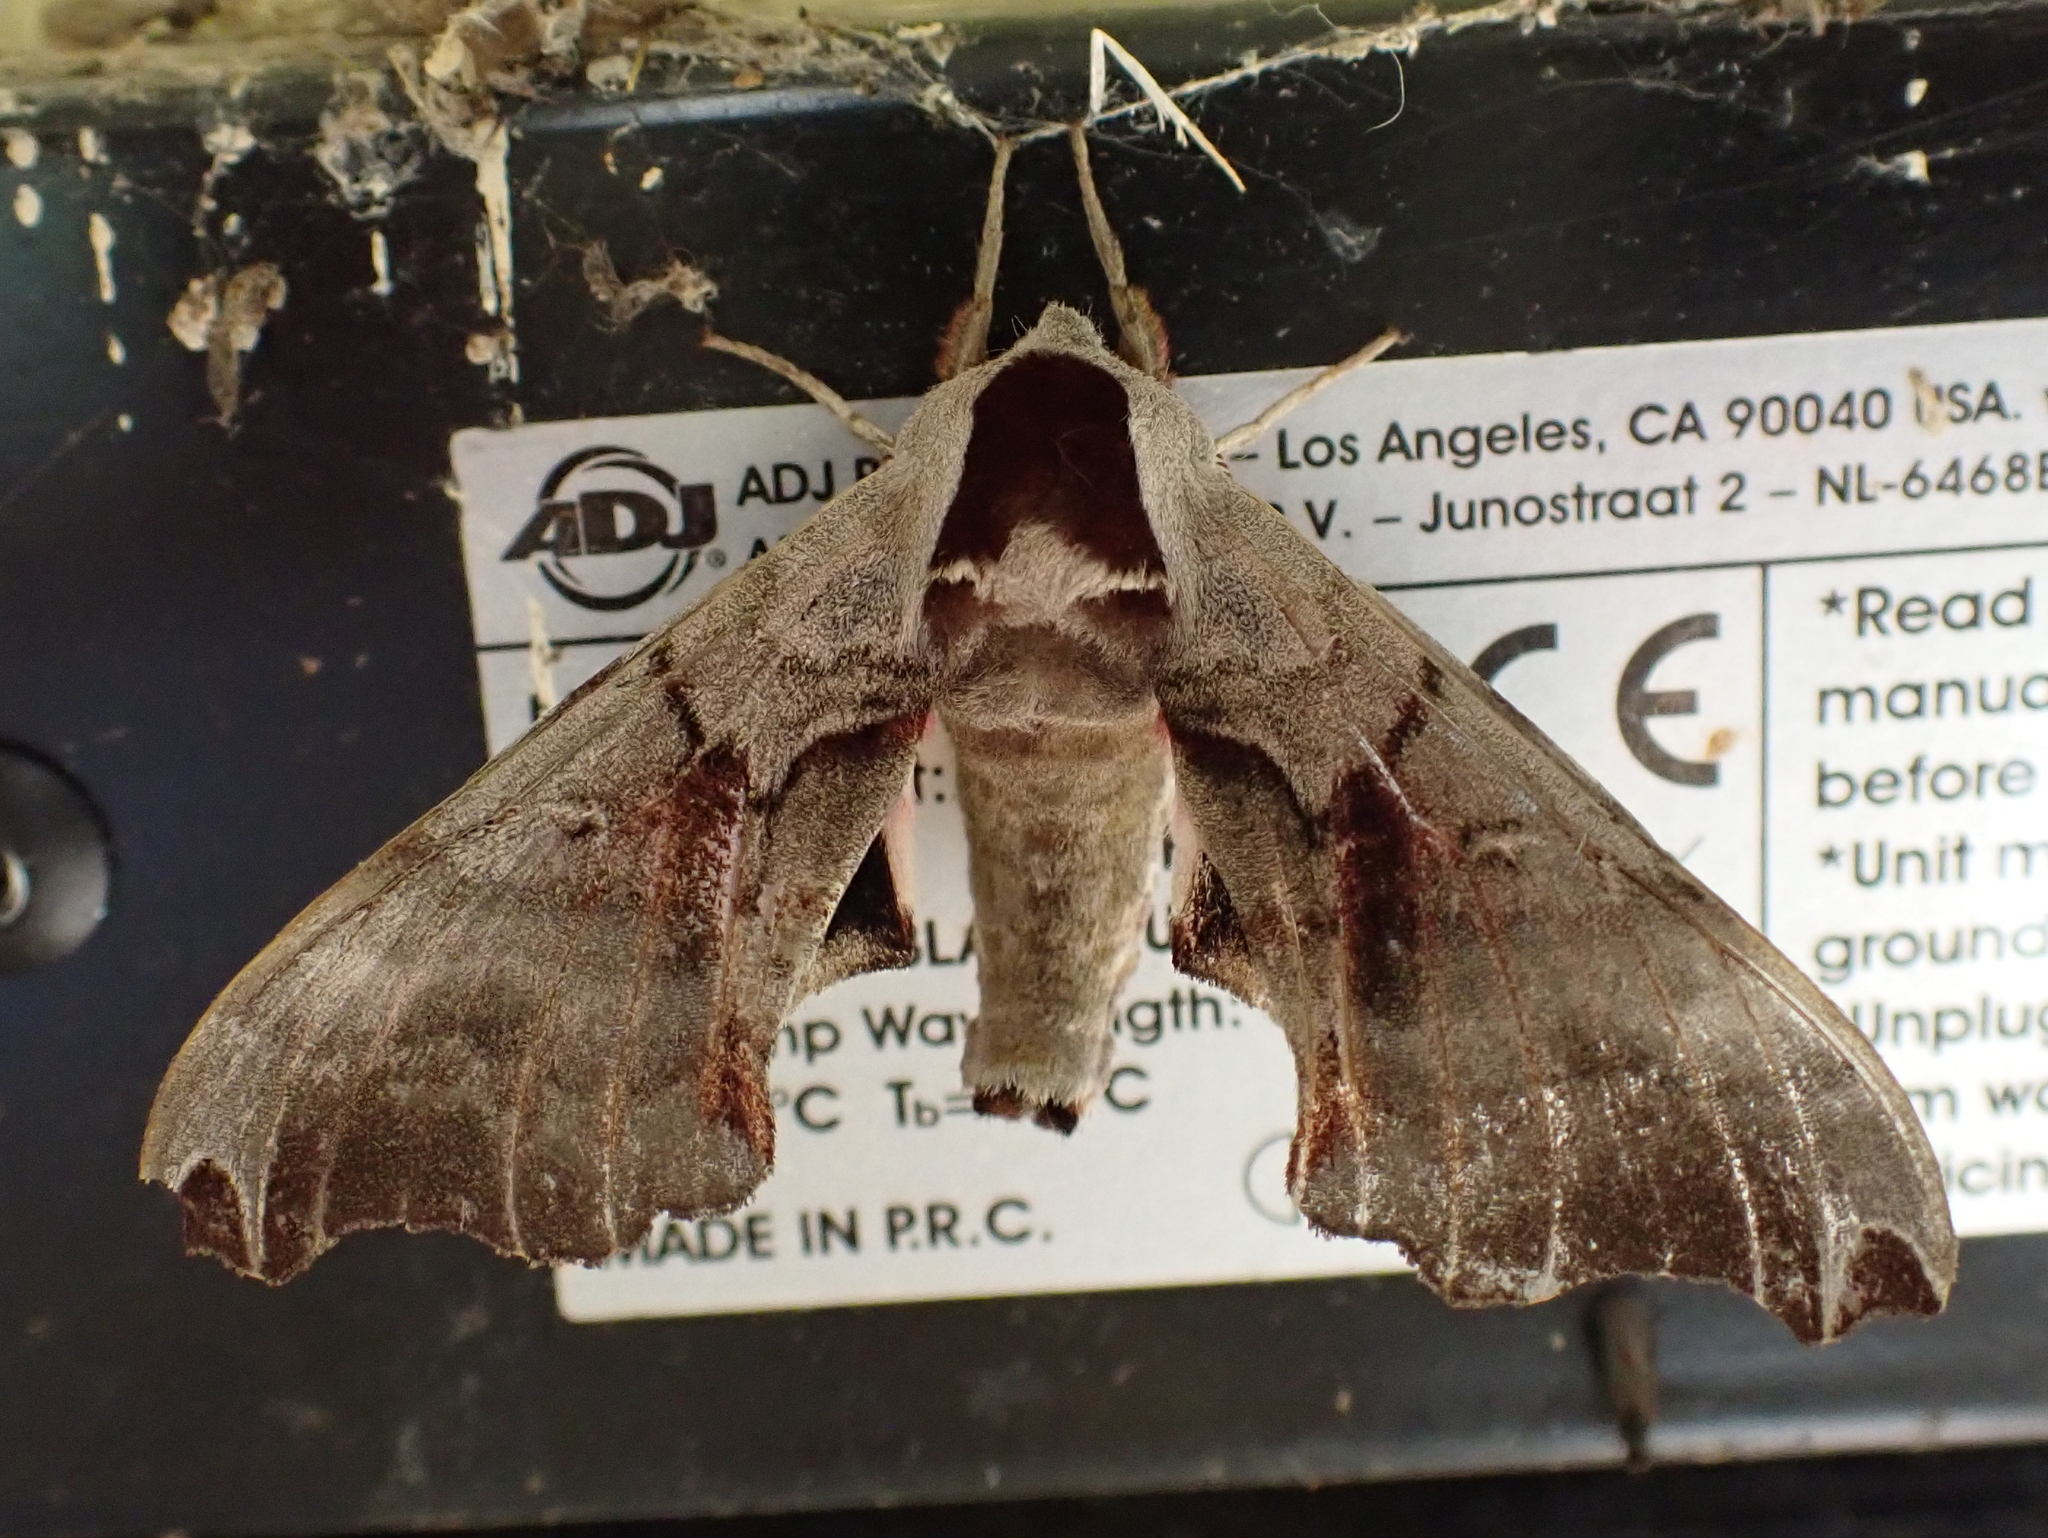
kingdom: Animalia
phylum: Arthropoda
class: Insecta
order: Lepidoptera
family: Sphingidae
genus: Smerinthus
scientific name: Smerinthus jamaicensis
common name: Twin spotted sphinx
